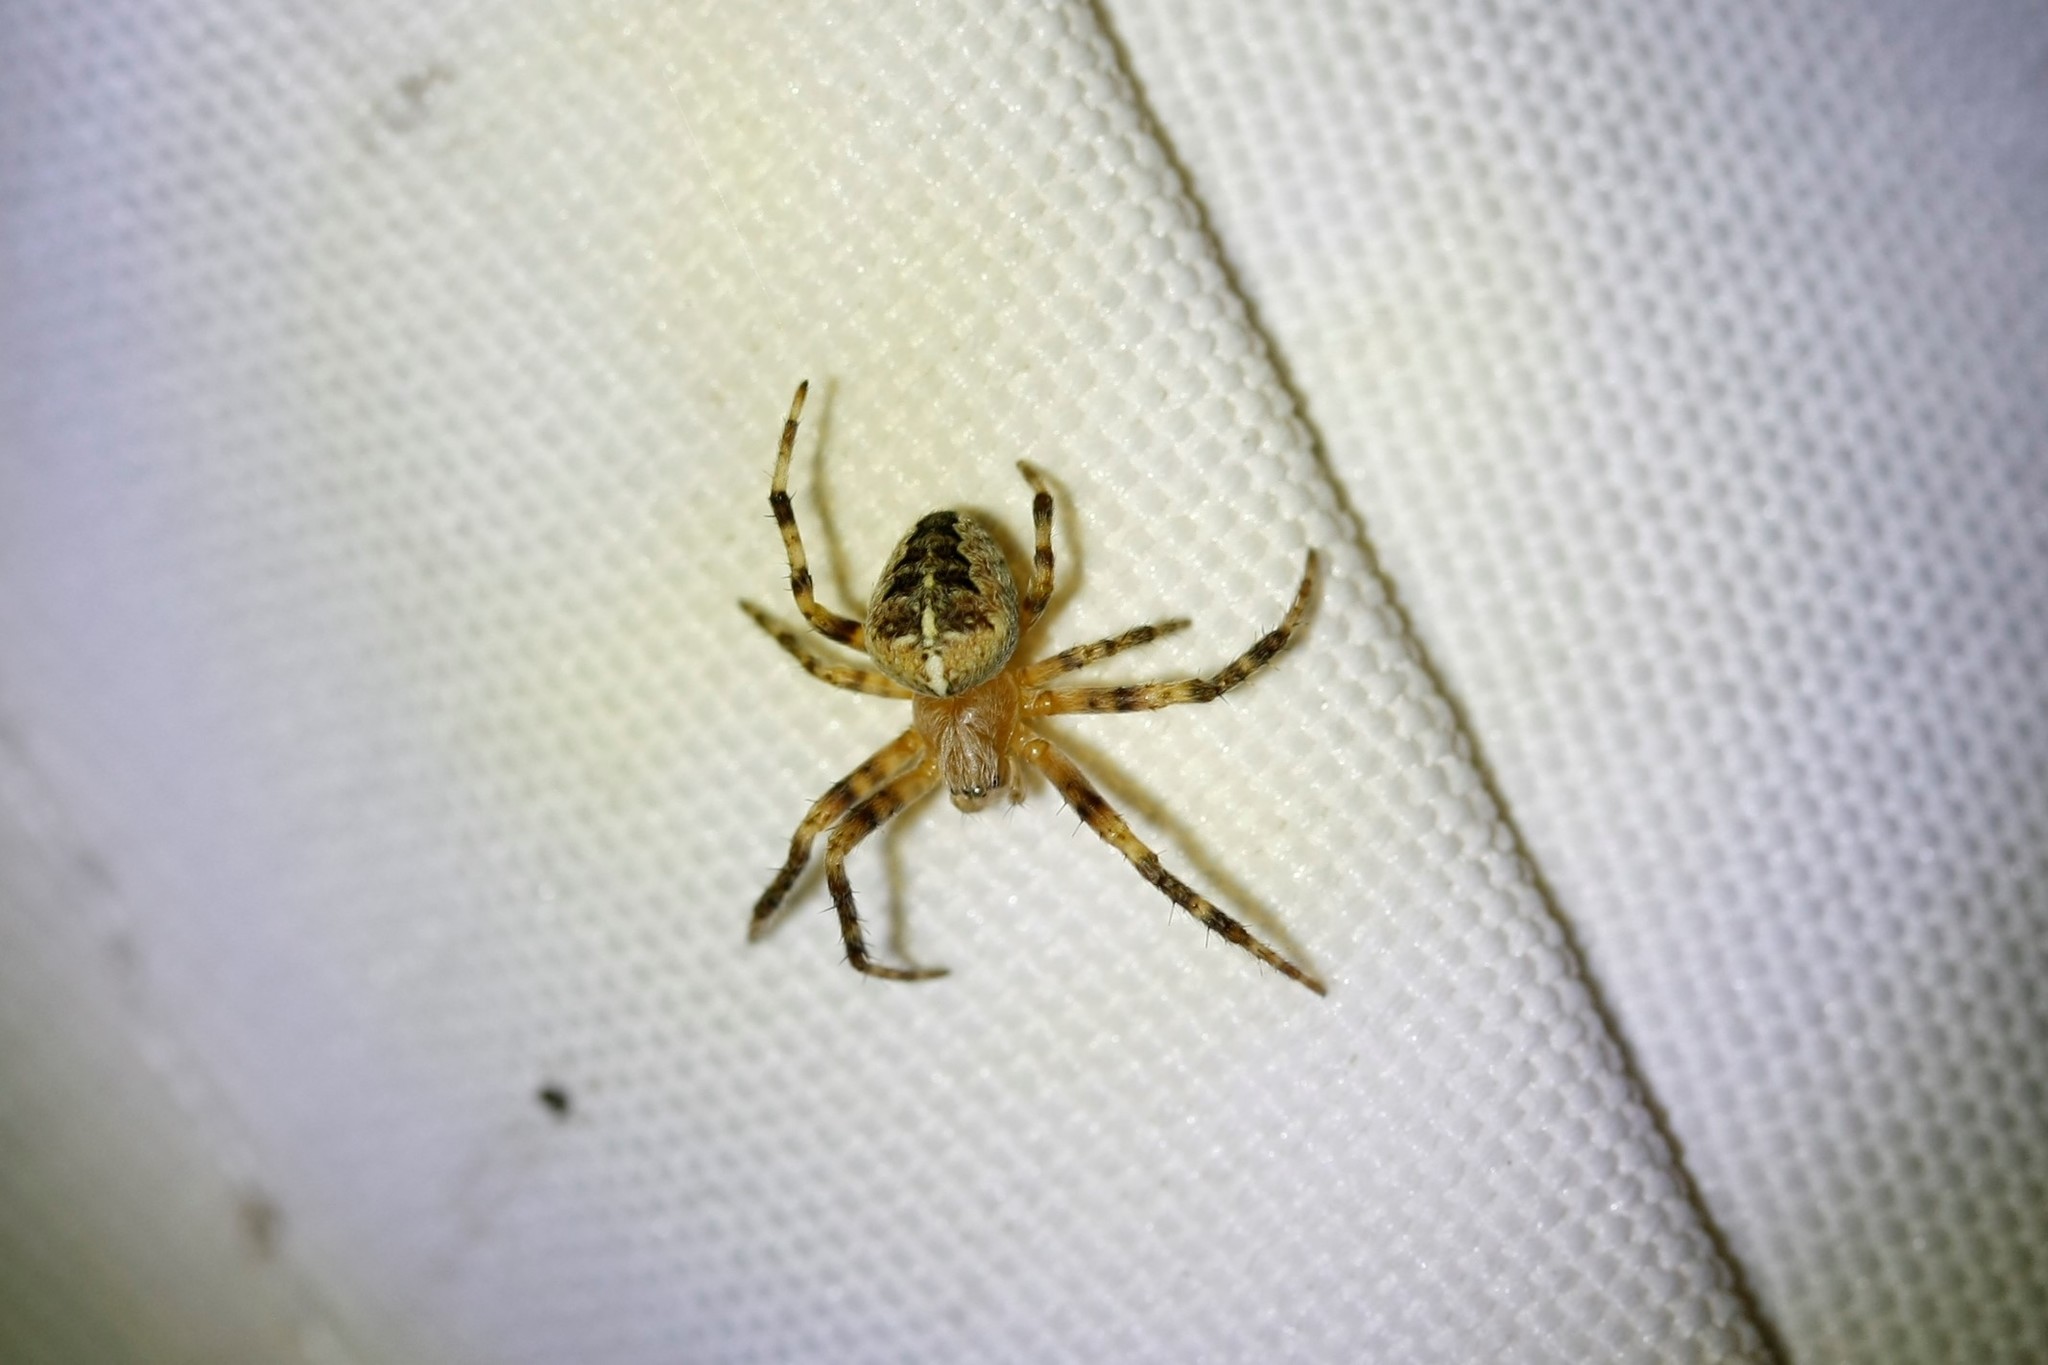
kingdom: Animalia
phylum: Arthropoda
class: Arachnida
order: Araneae
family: Araneidae
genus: Araneus
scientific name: Araneus diadematus
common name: Cross orbweaver
